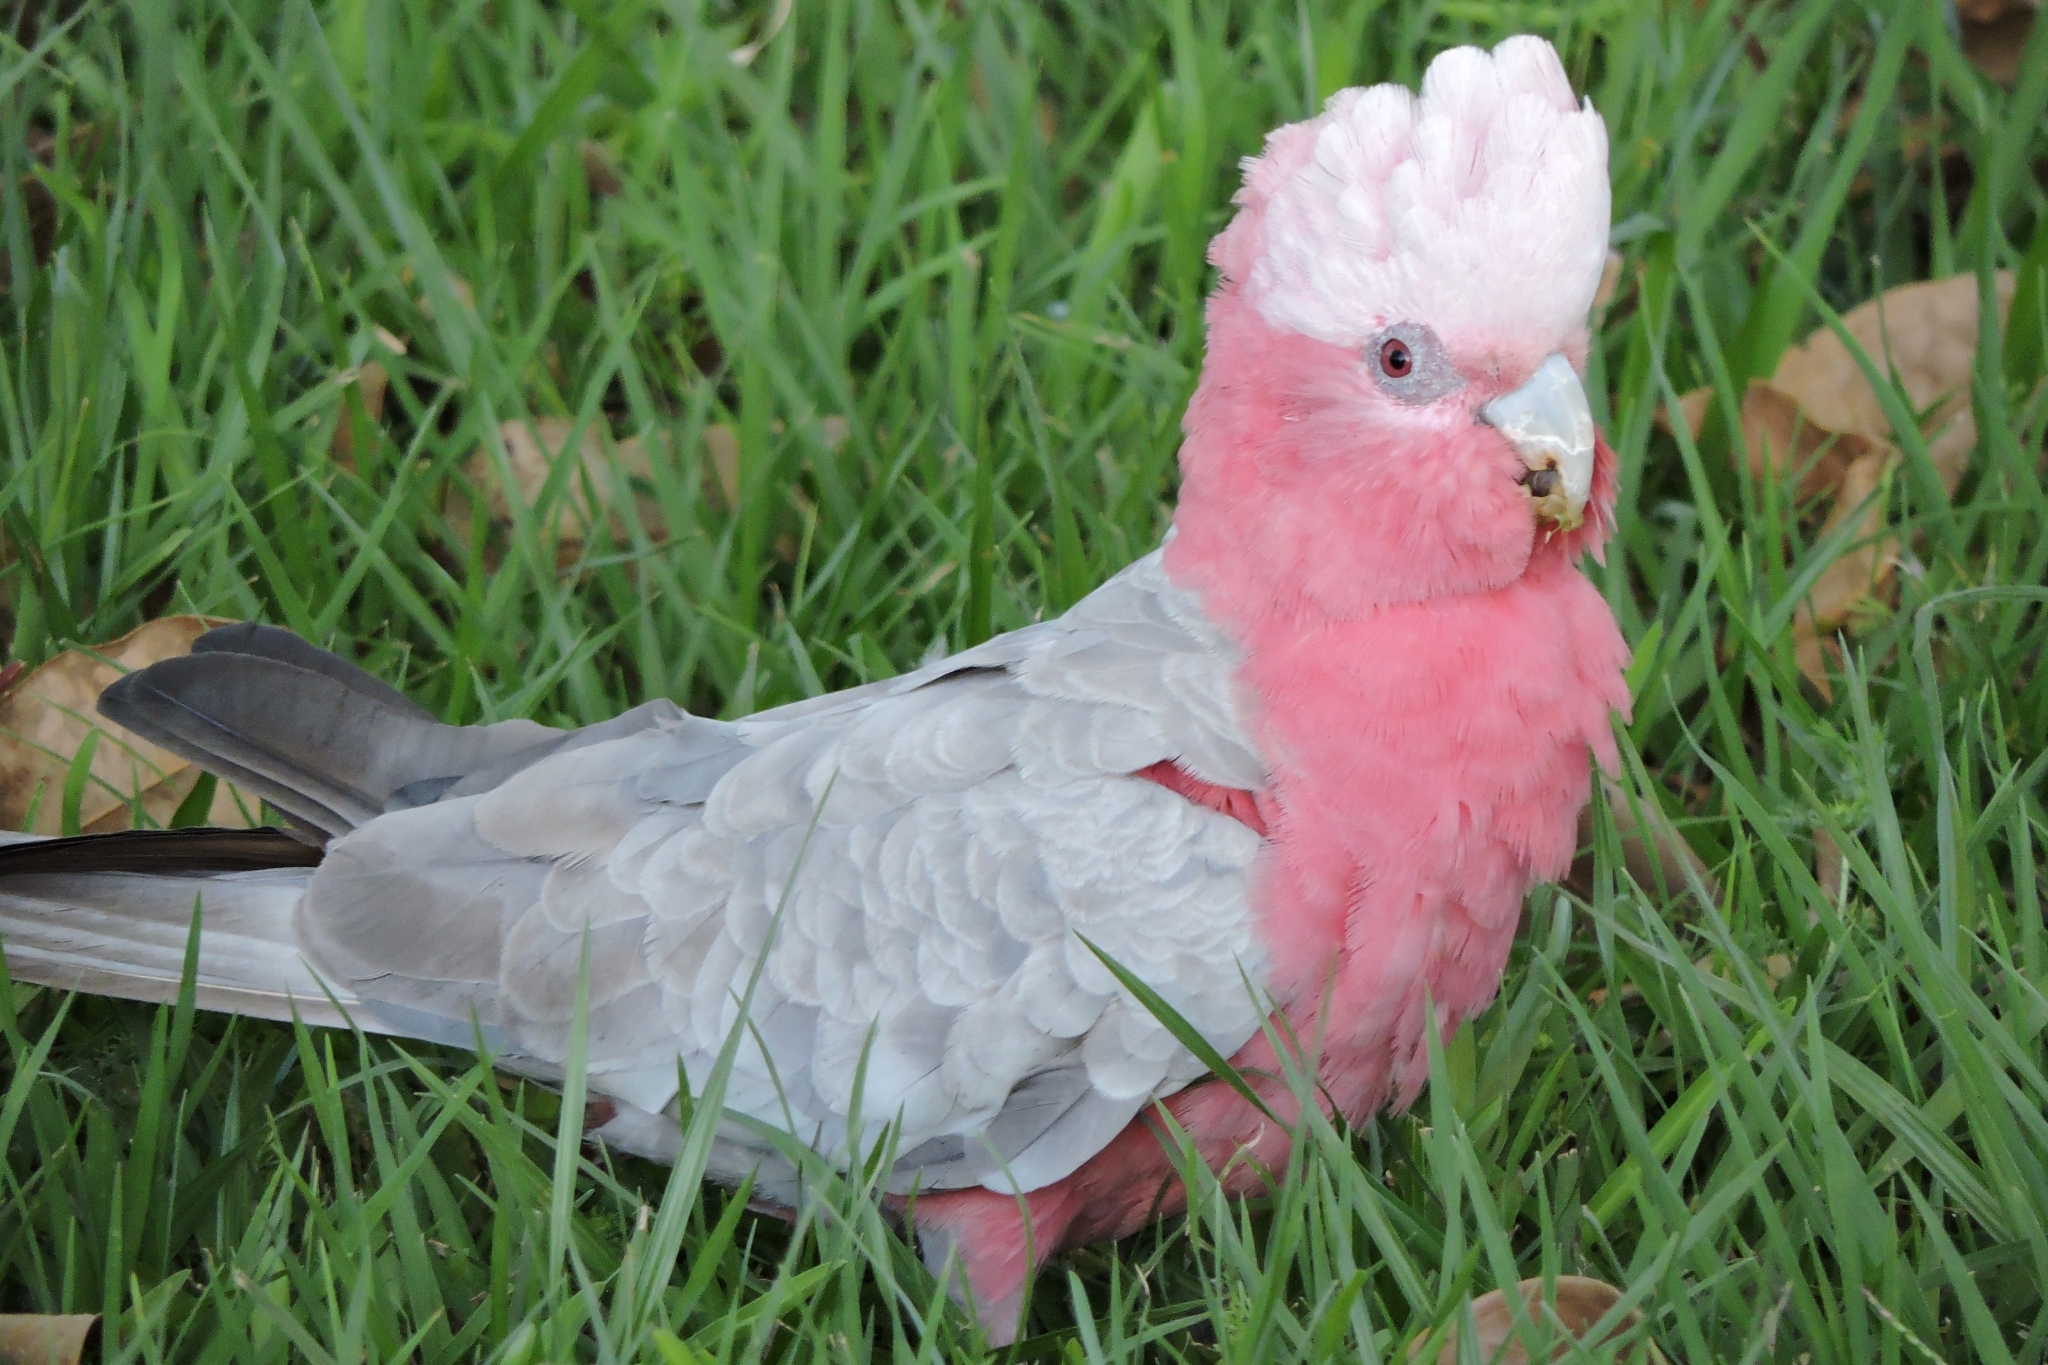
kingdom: Animalia
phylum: Chordata
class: Aves
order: Psittaciformes
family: Psittacidae
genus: Eolophus
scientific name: Eolophus roseicapilla
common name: Galah
